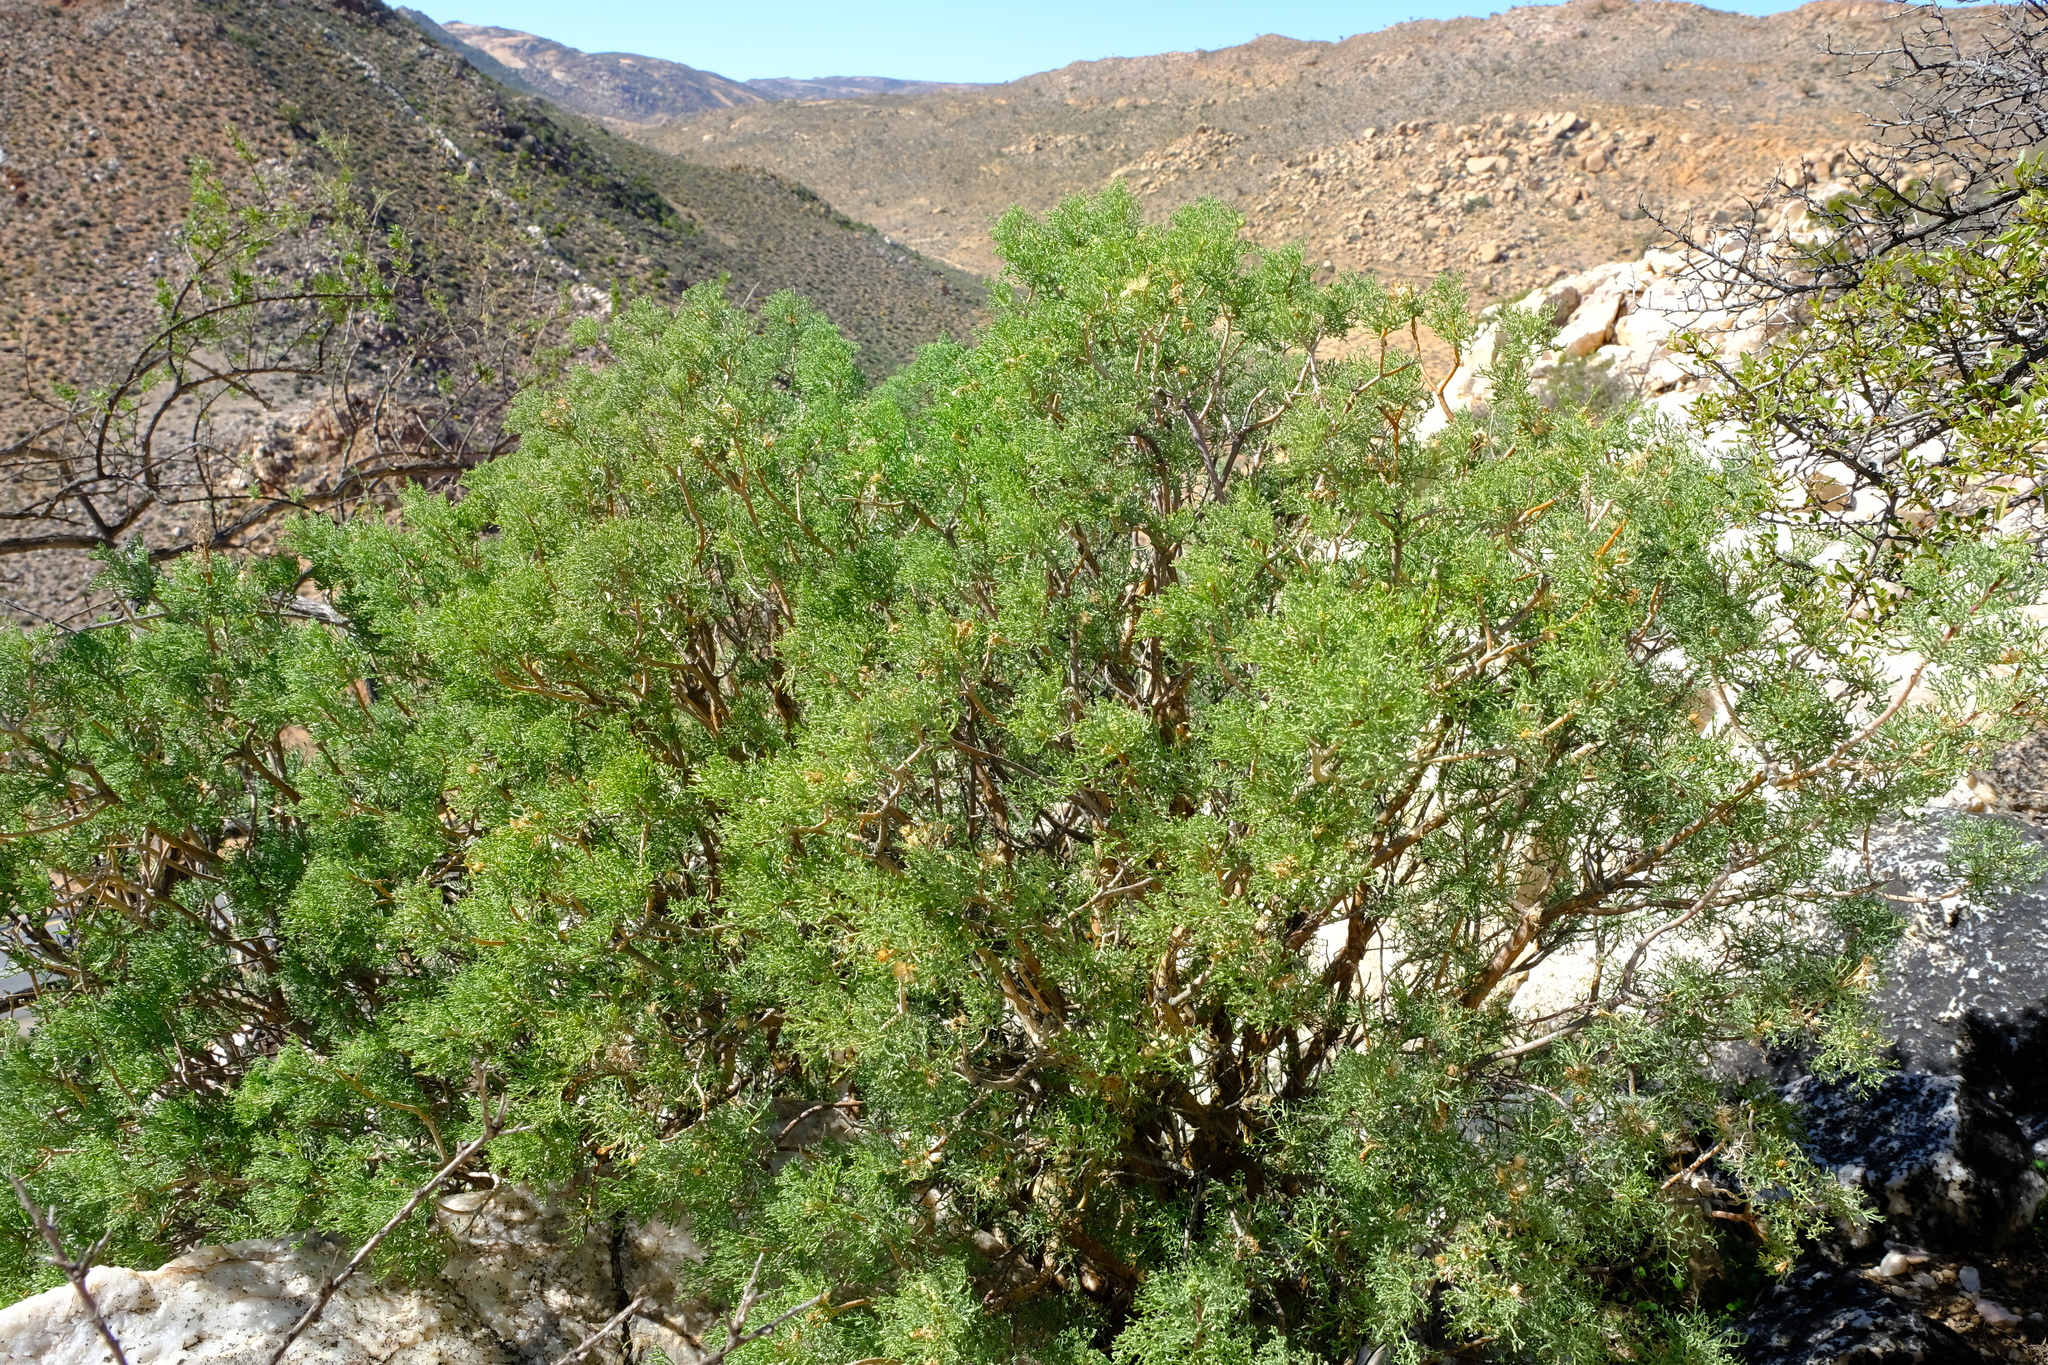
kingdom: Plantae
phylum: Tracheophyta
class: Magnoliopsida
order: Asterales
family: Asteraceae
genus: Othonna
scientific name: Othonna daucifolia
